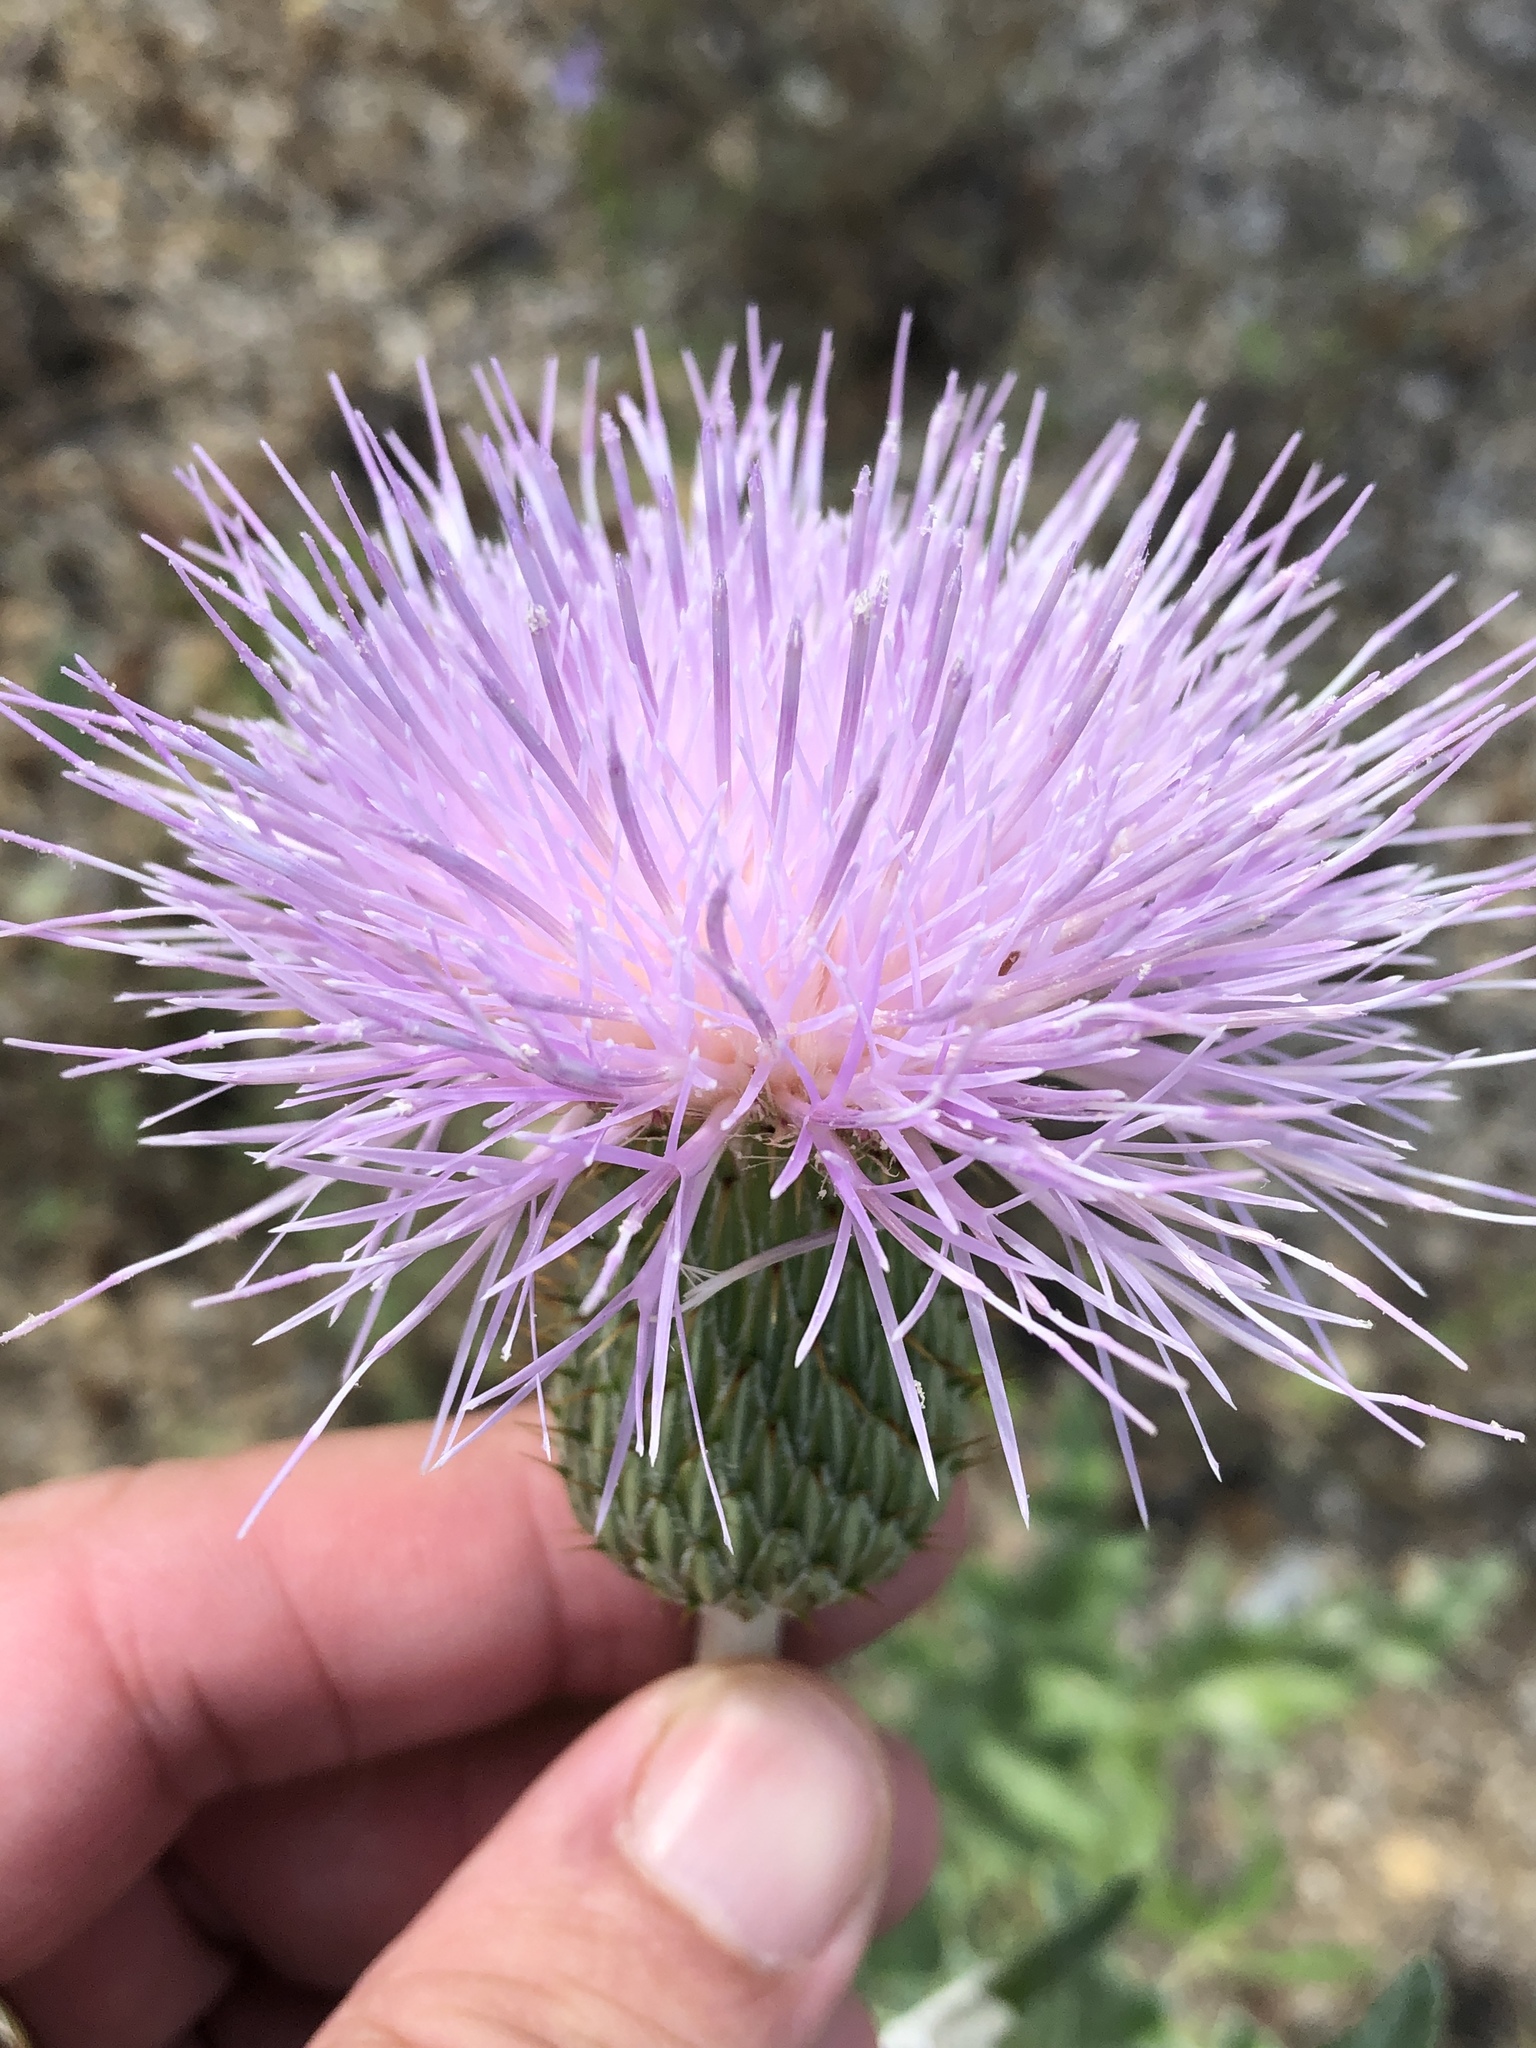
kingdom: Plantae
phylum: Tracheophyta
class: Magnoliopsida
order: Asterales
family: Asteraceae
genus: Cirsium
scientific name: Cirsium undulatum
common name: Pasture thistle
